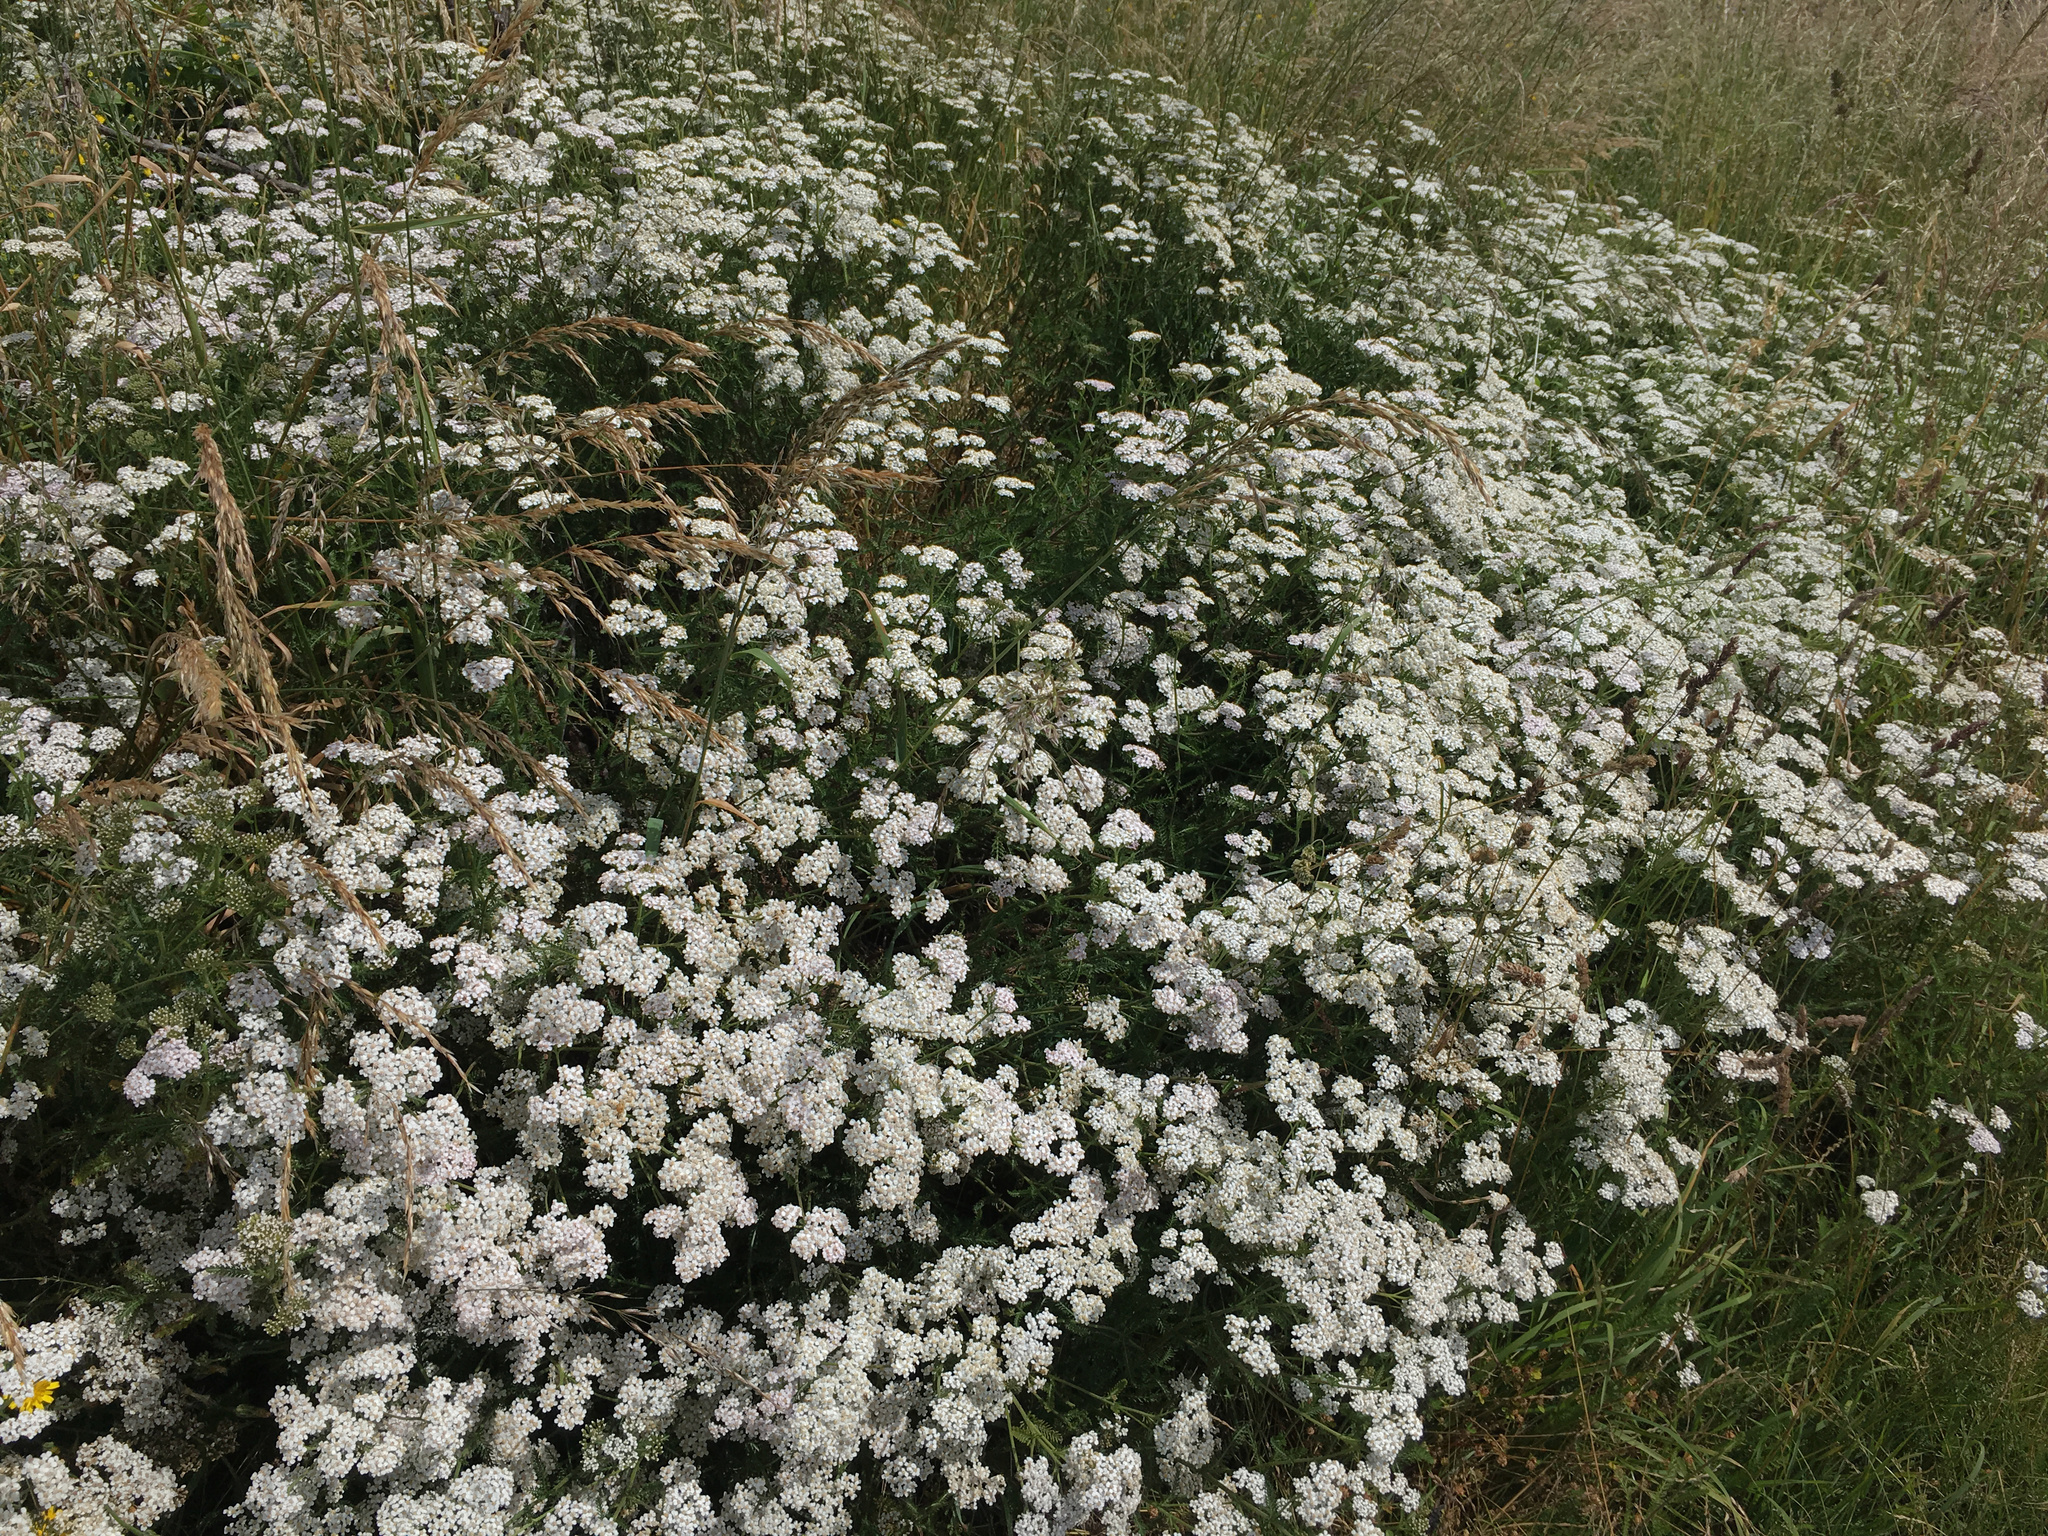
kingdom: Plantae
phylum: Tracheophyta
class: Magnoliopsida
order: Asterales
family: Asteraceae
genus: Achillea
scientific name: Achillea millefolium
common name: Yarrow
